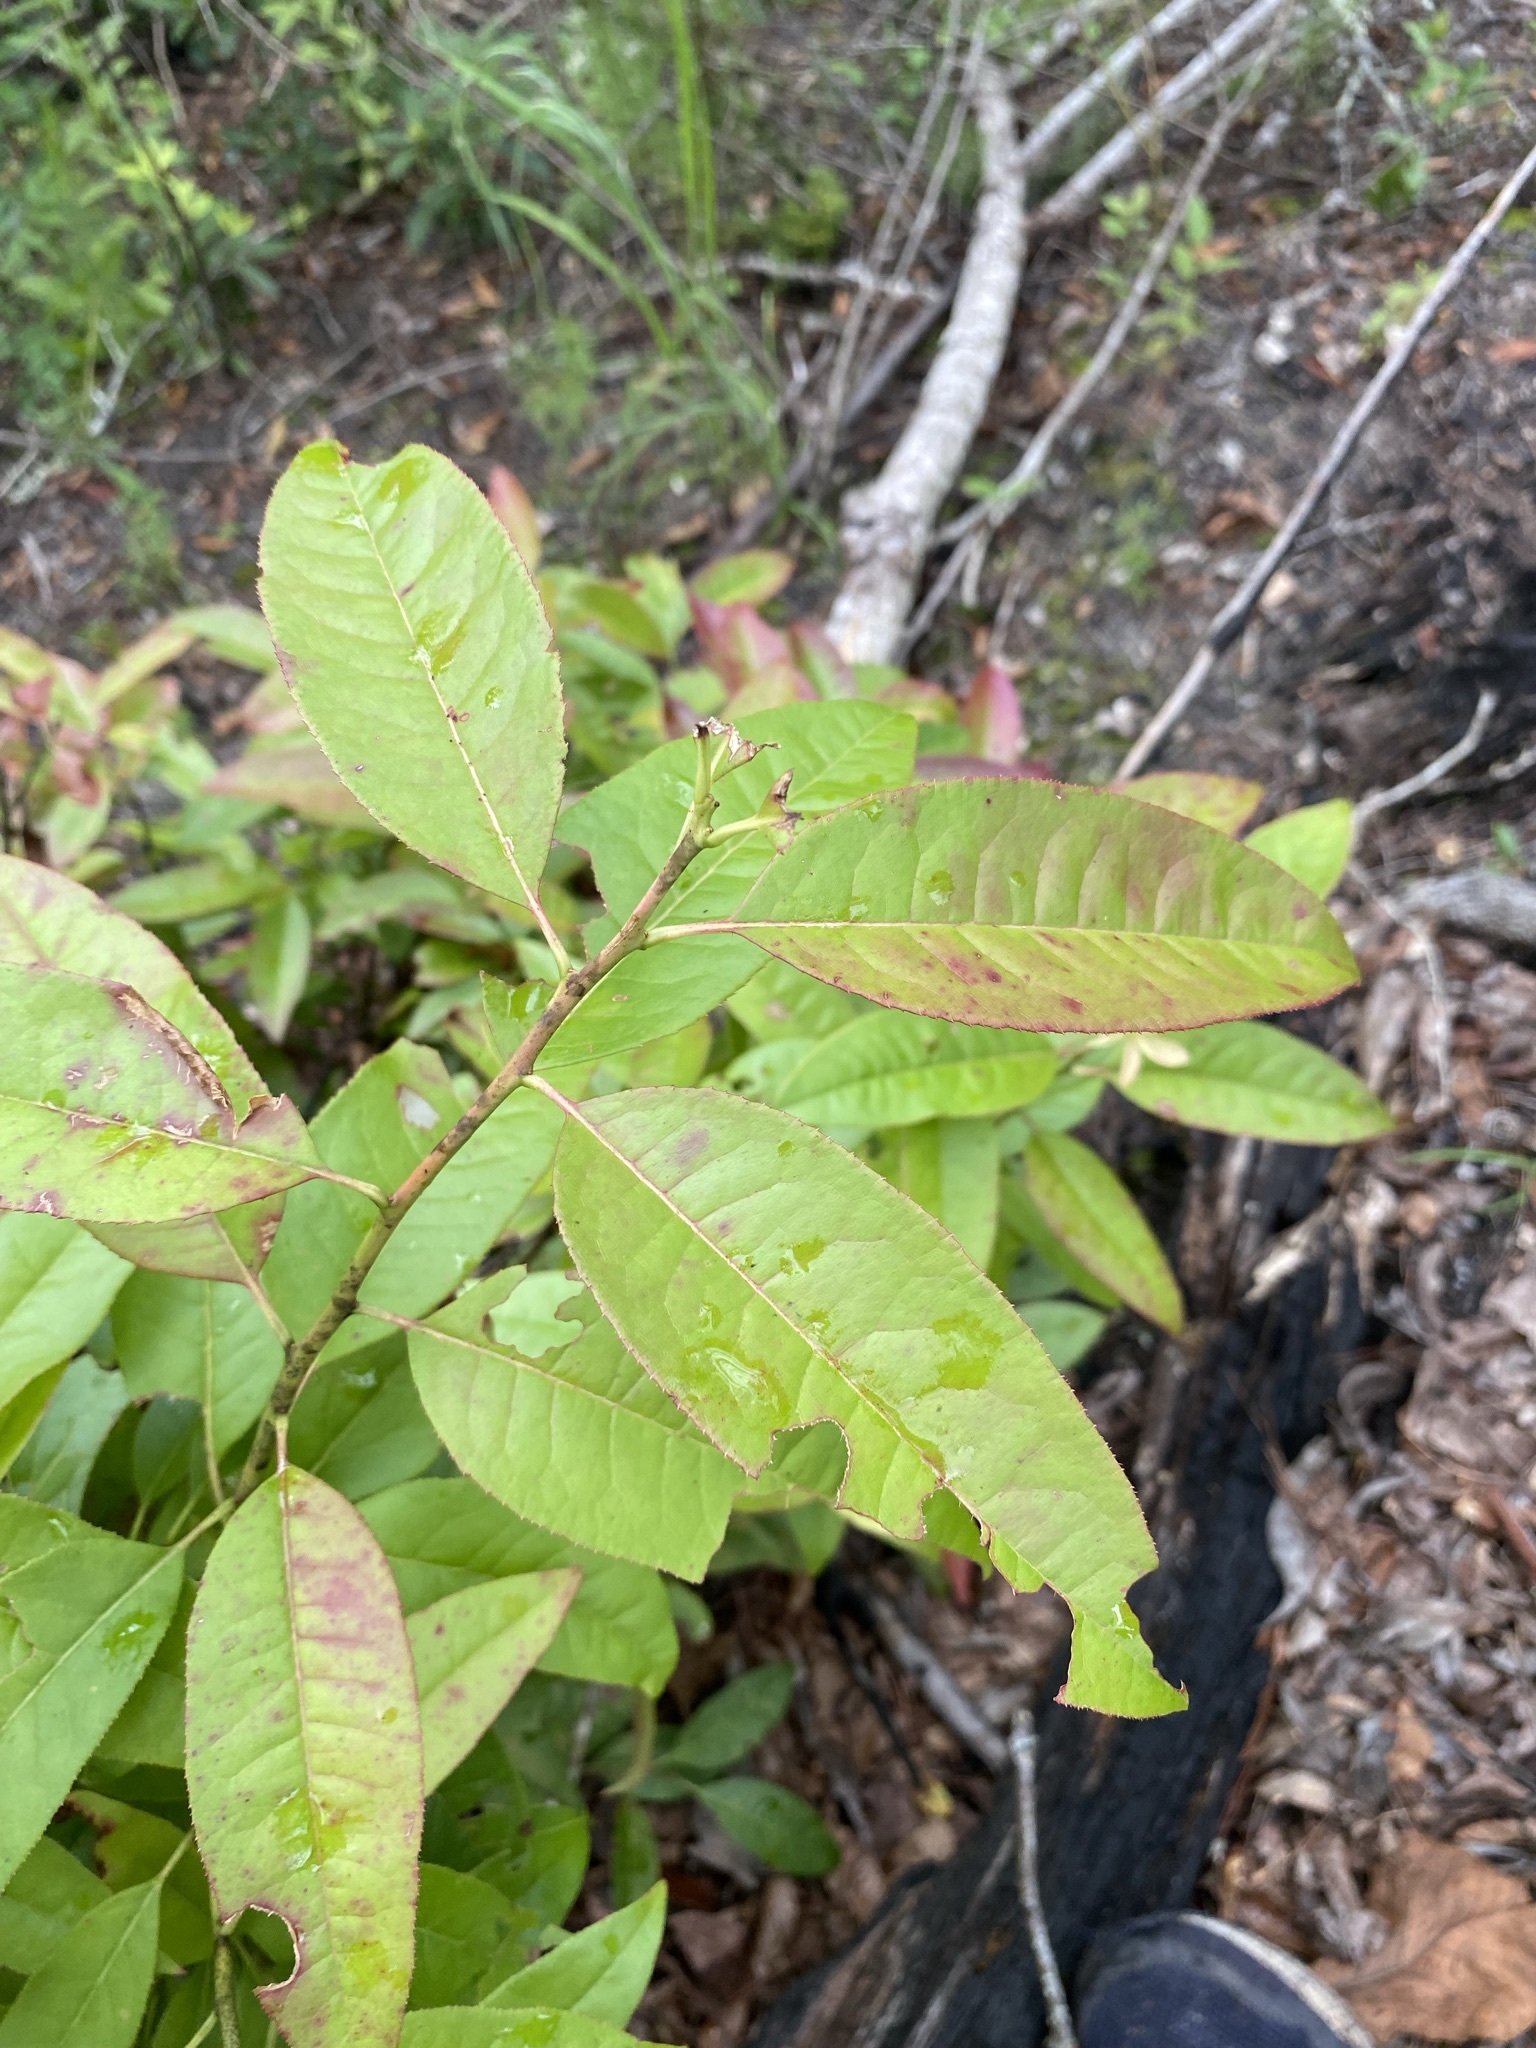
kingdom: Plantae
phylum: Tracheophyta
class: Magnoliopsida
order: Ericales
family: Ericaceae
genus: Oxydendrum
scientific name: Oxydendrum arboreum
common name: Sourwood
